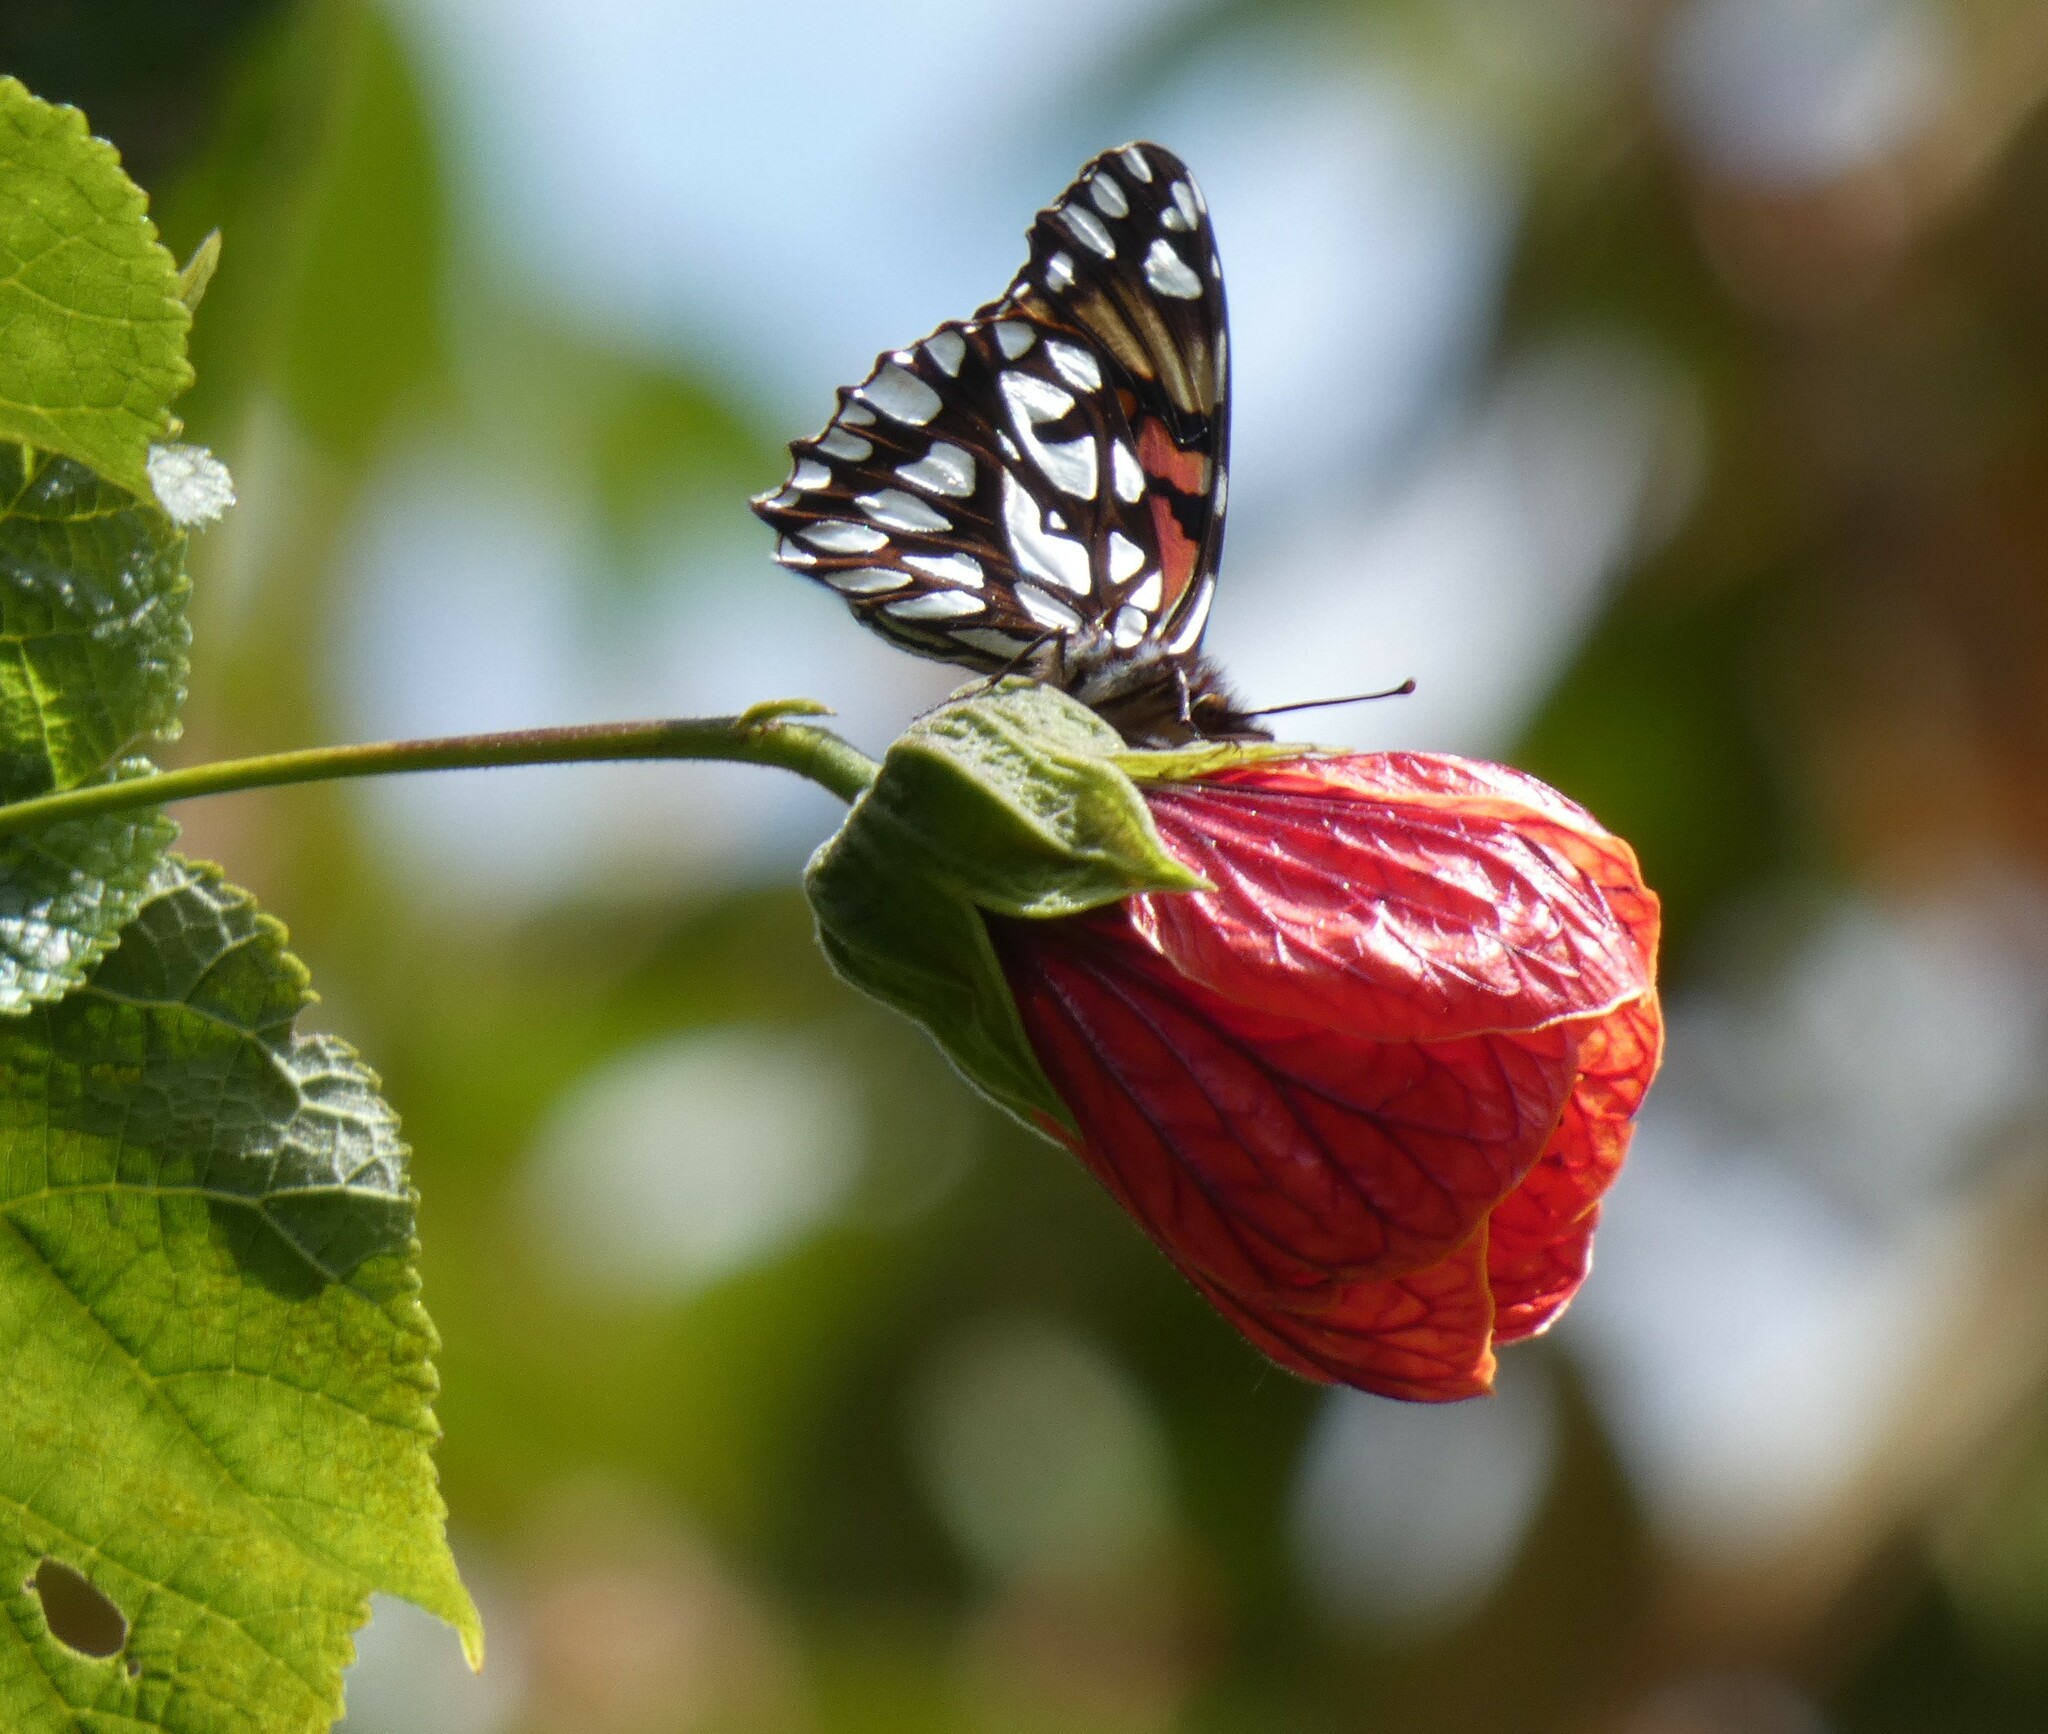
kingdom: Animalia
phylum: Arthropoda
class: Insecta
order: Lepidoptera
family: Nymphalidae
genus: Dione
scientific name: Dione glycera
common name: Andean silverspot
